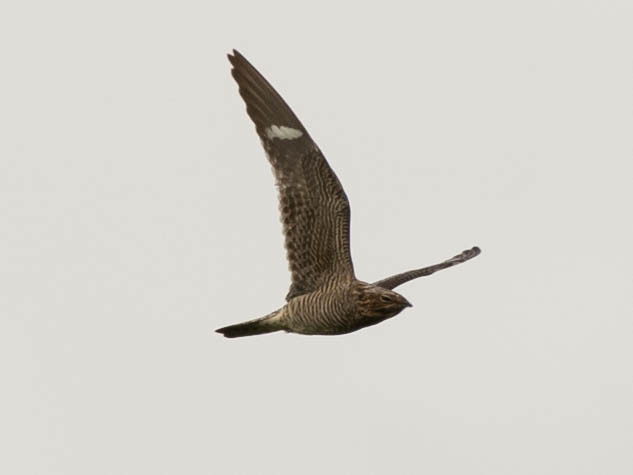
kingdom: Animalia
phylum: Chordata
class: Aves
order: Caprimulgiformes
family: Caprimulgidae
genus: Chordeiles
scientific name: Chordeiles minor
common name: Common nighthawk
